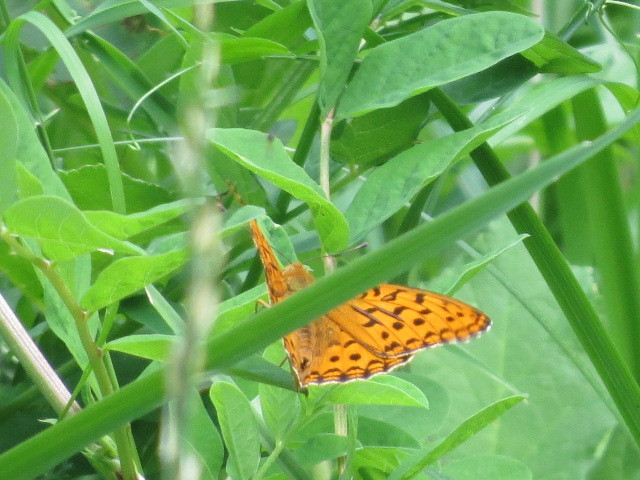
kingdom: Animalia
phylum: Arthropoda
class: Insecta
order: Lepidoptera
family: Nymphalidae
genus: Fabriciana
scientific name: Fabriciana adippe
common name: High brown fritillary
